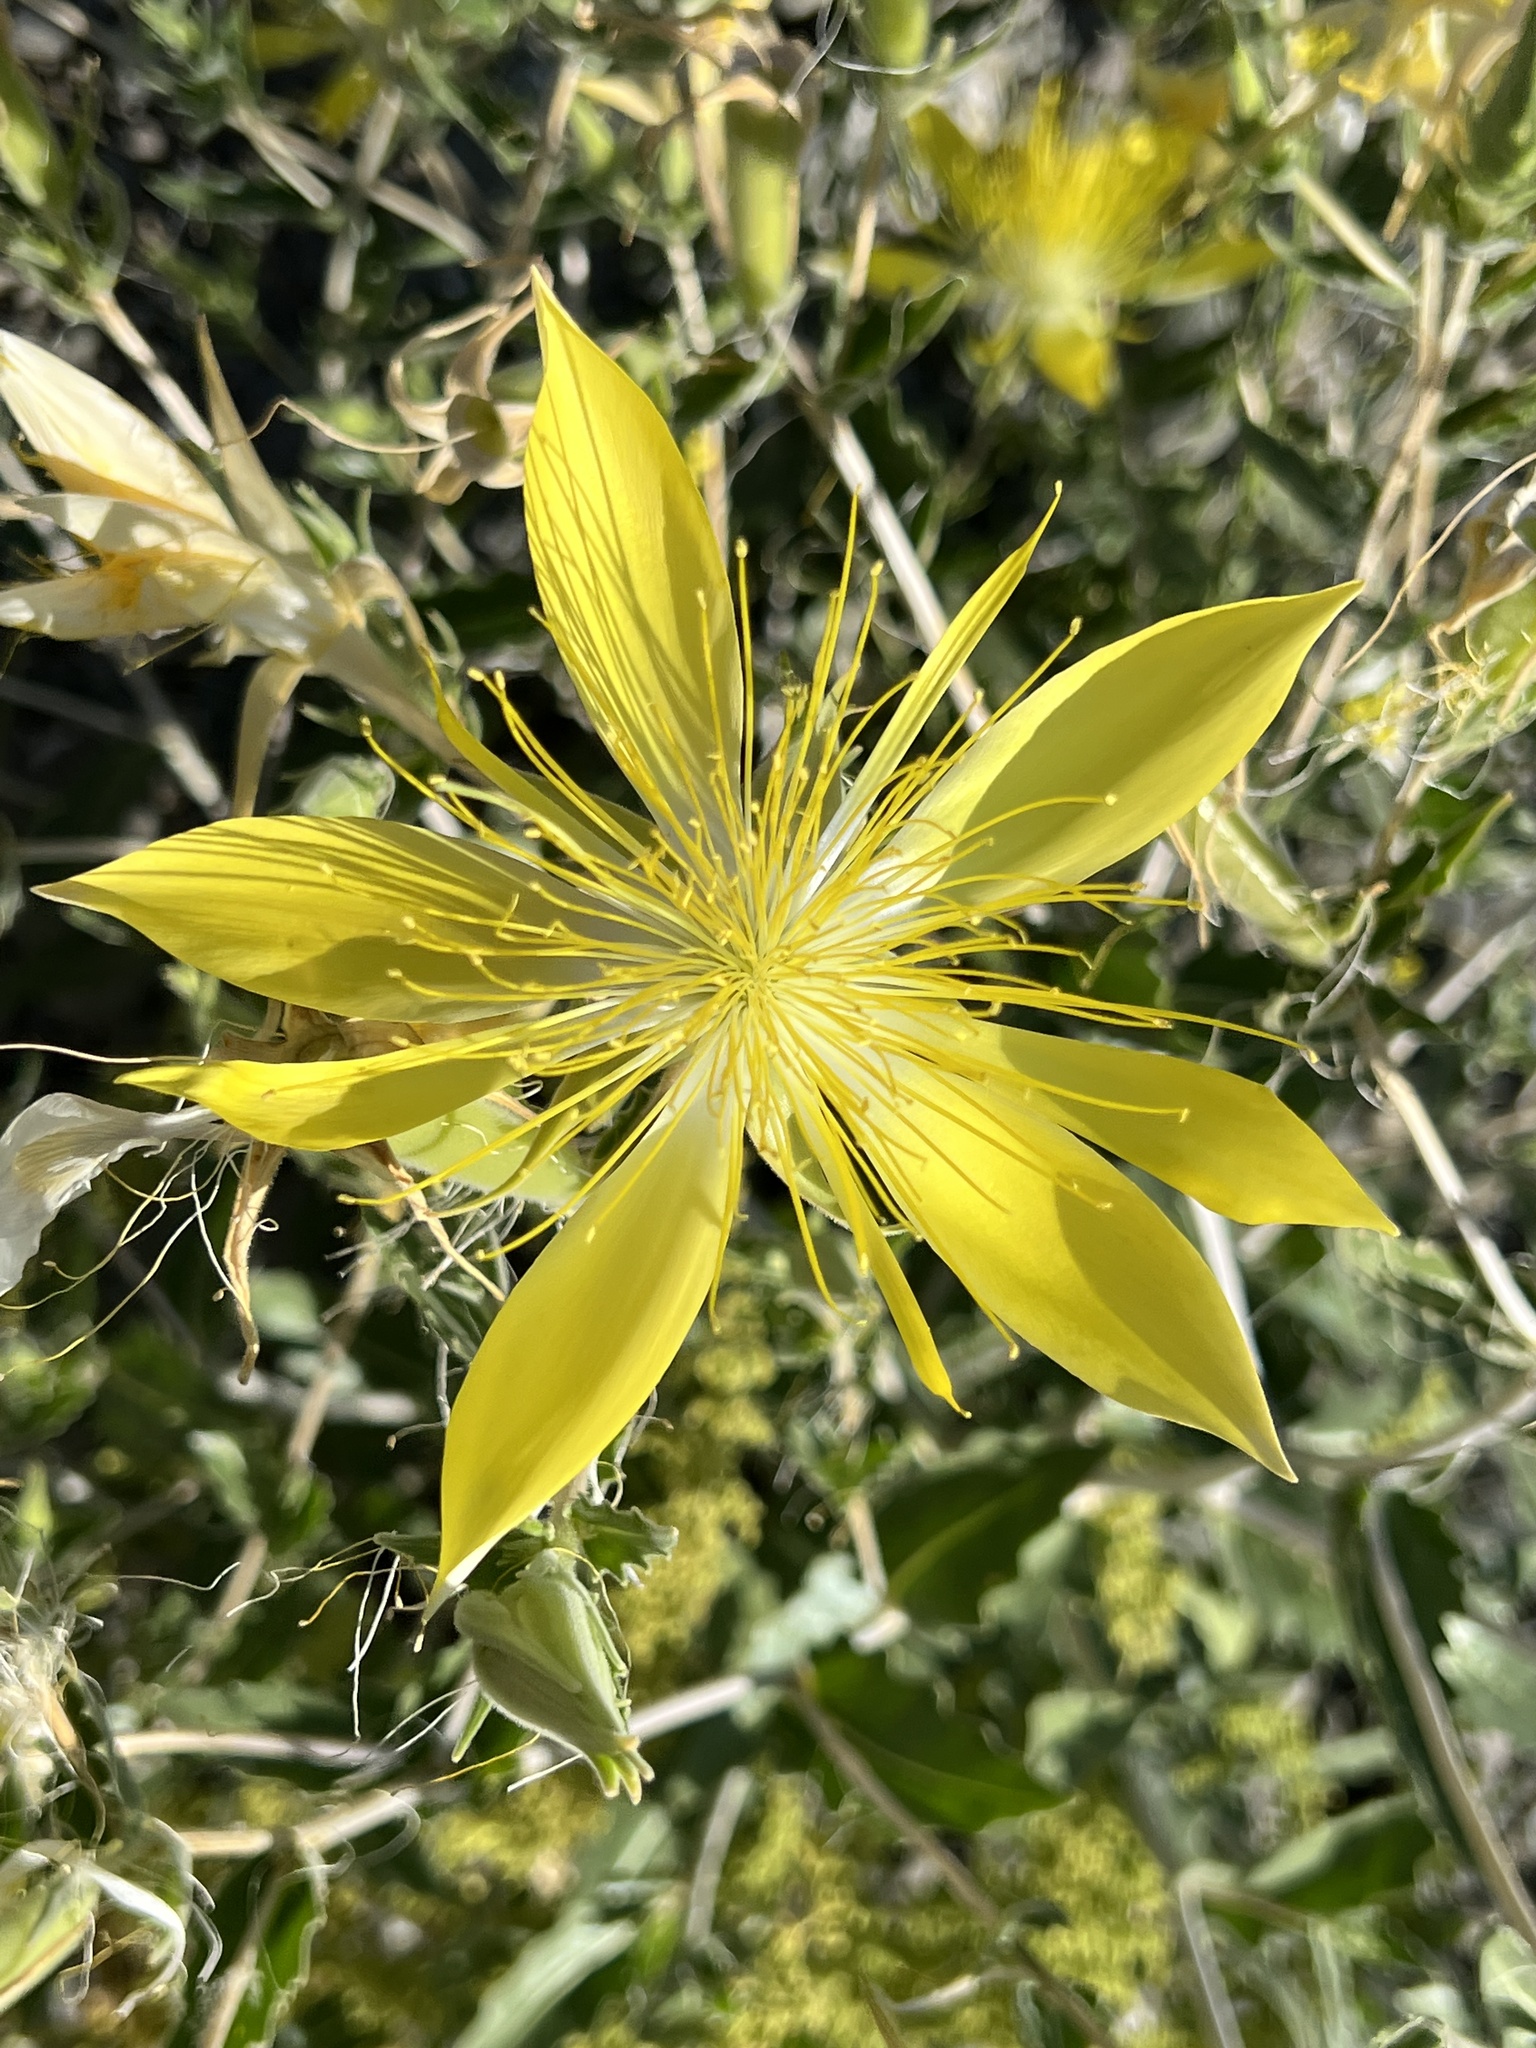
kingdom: Plantae
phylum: Tracheophyta
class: Magnoliopsida
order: Cornales
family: Loasaceae
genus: Mentzelia
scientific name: Mentzelia laevicaulis
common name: Smooth-stem blazingstar
